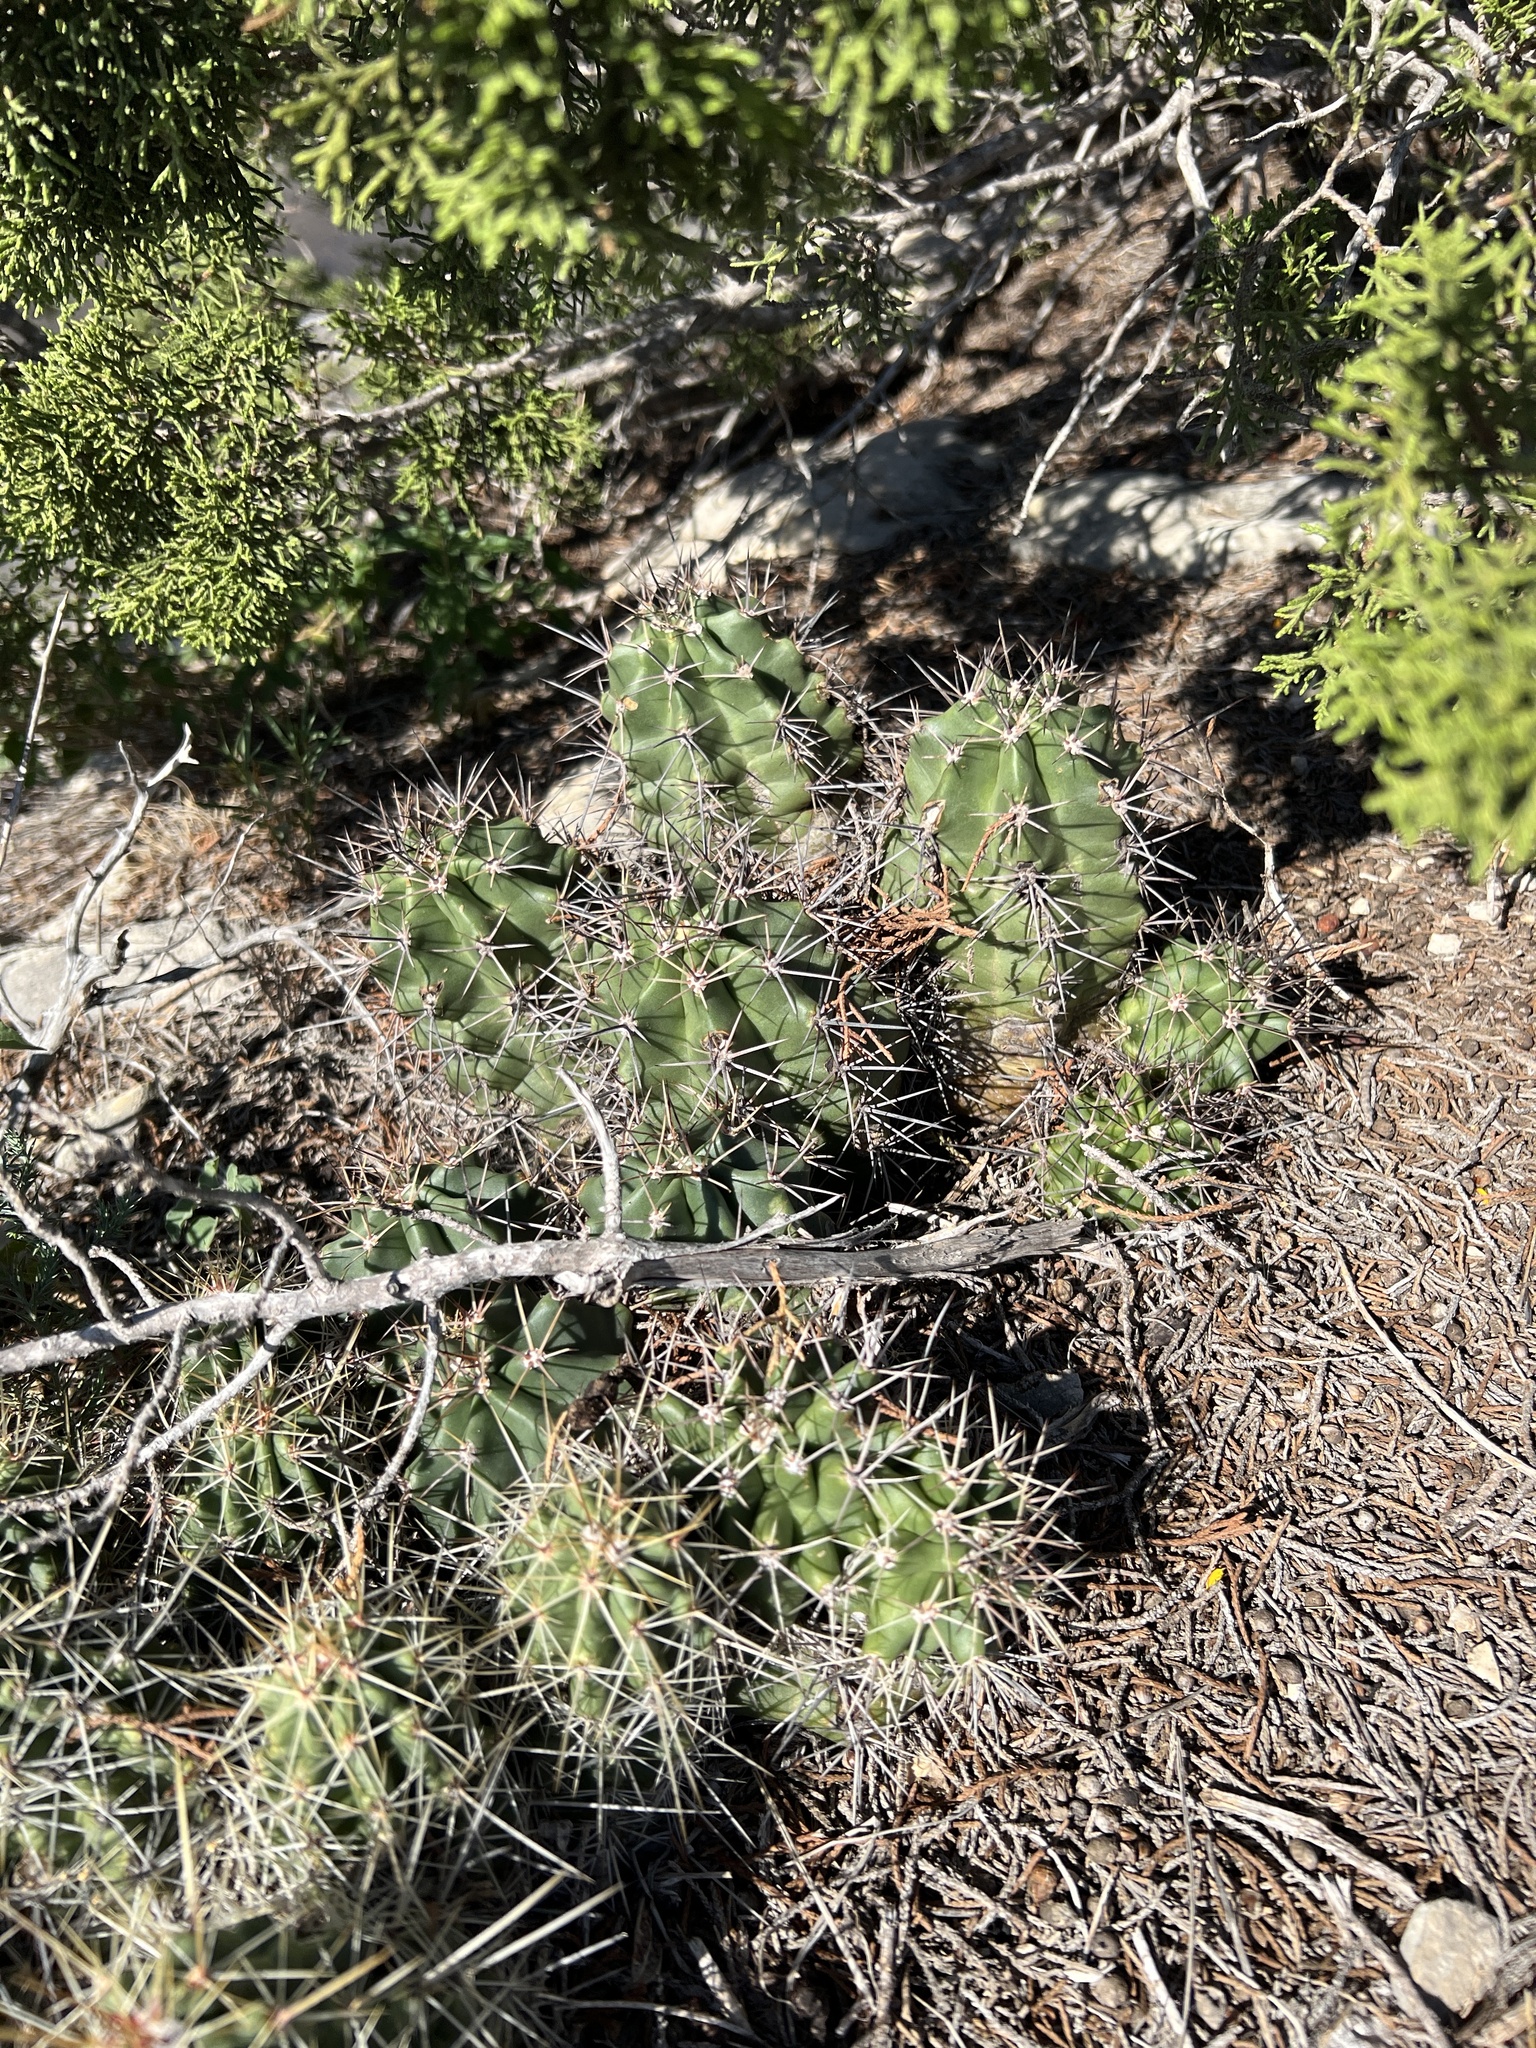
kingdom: Plantae
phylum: Tracheophyta
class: Magnoliopsida
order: Caryophyllales
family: Cactaceae
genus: Echinocereus
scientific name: Echinocereus coccineus
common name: Scarlet hedgehog cactus
